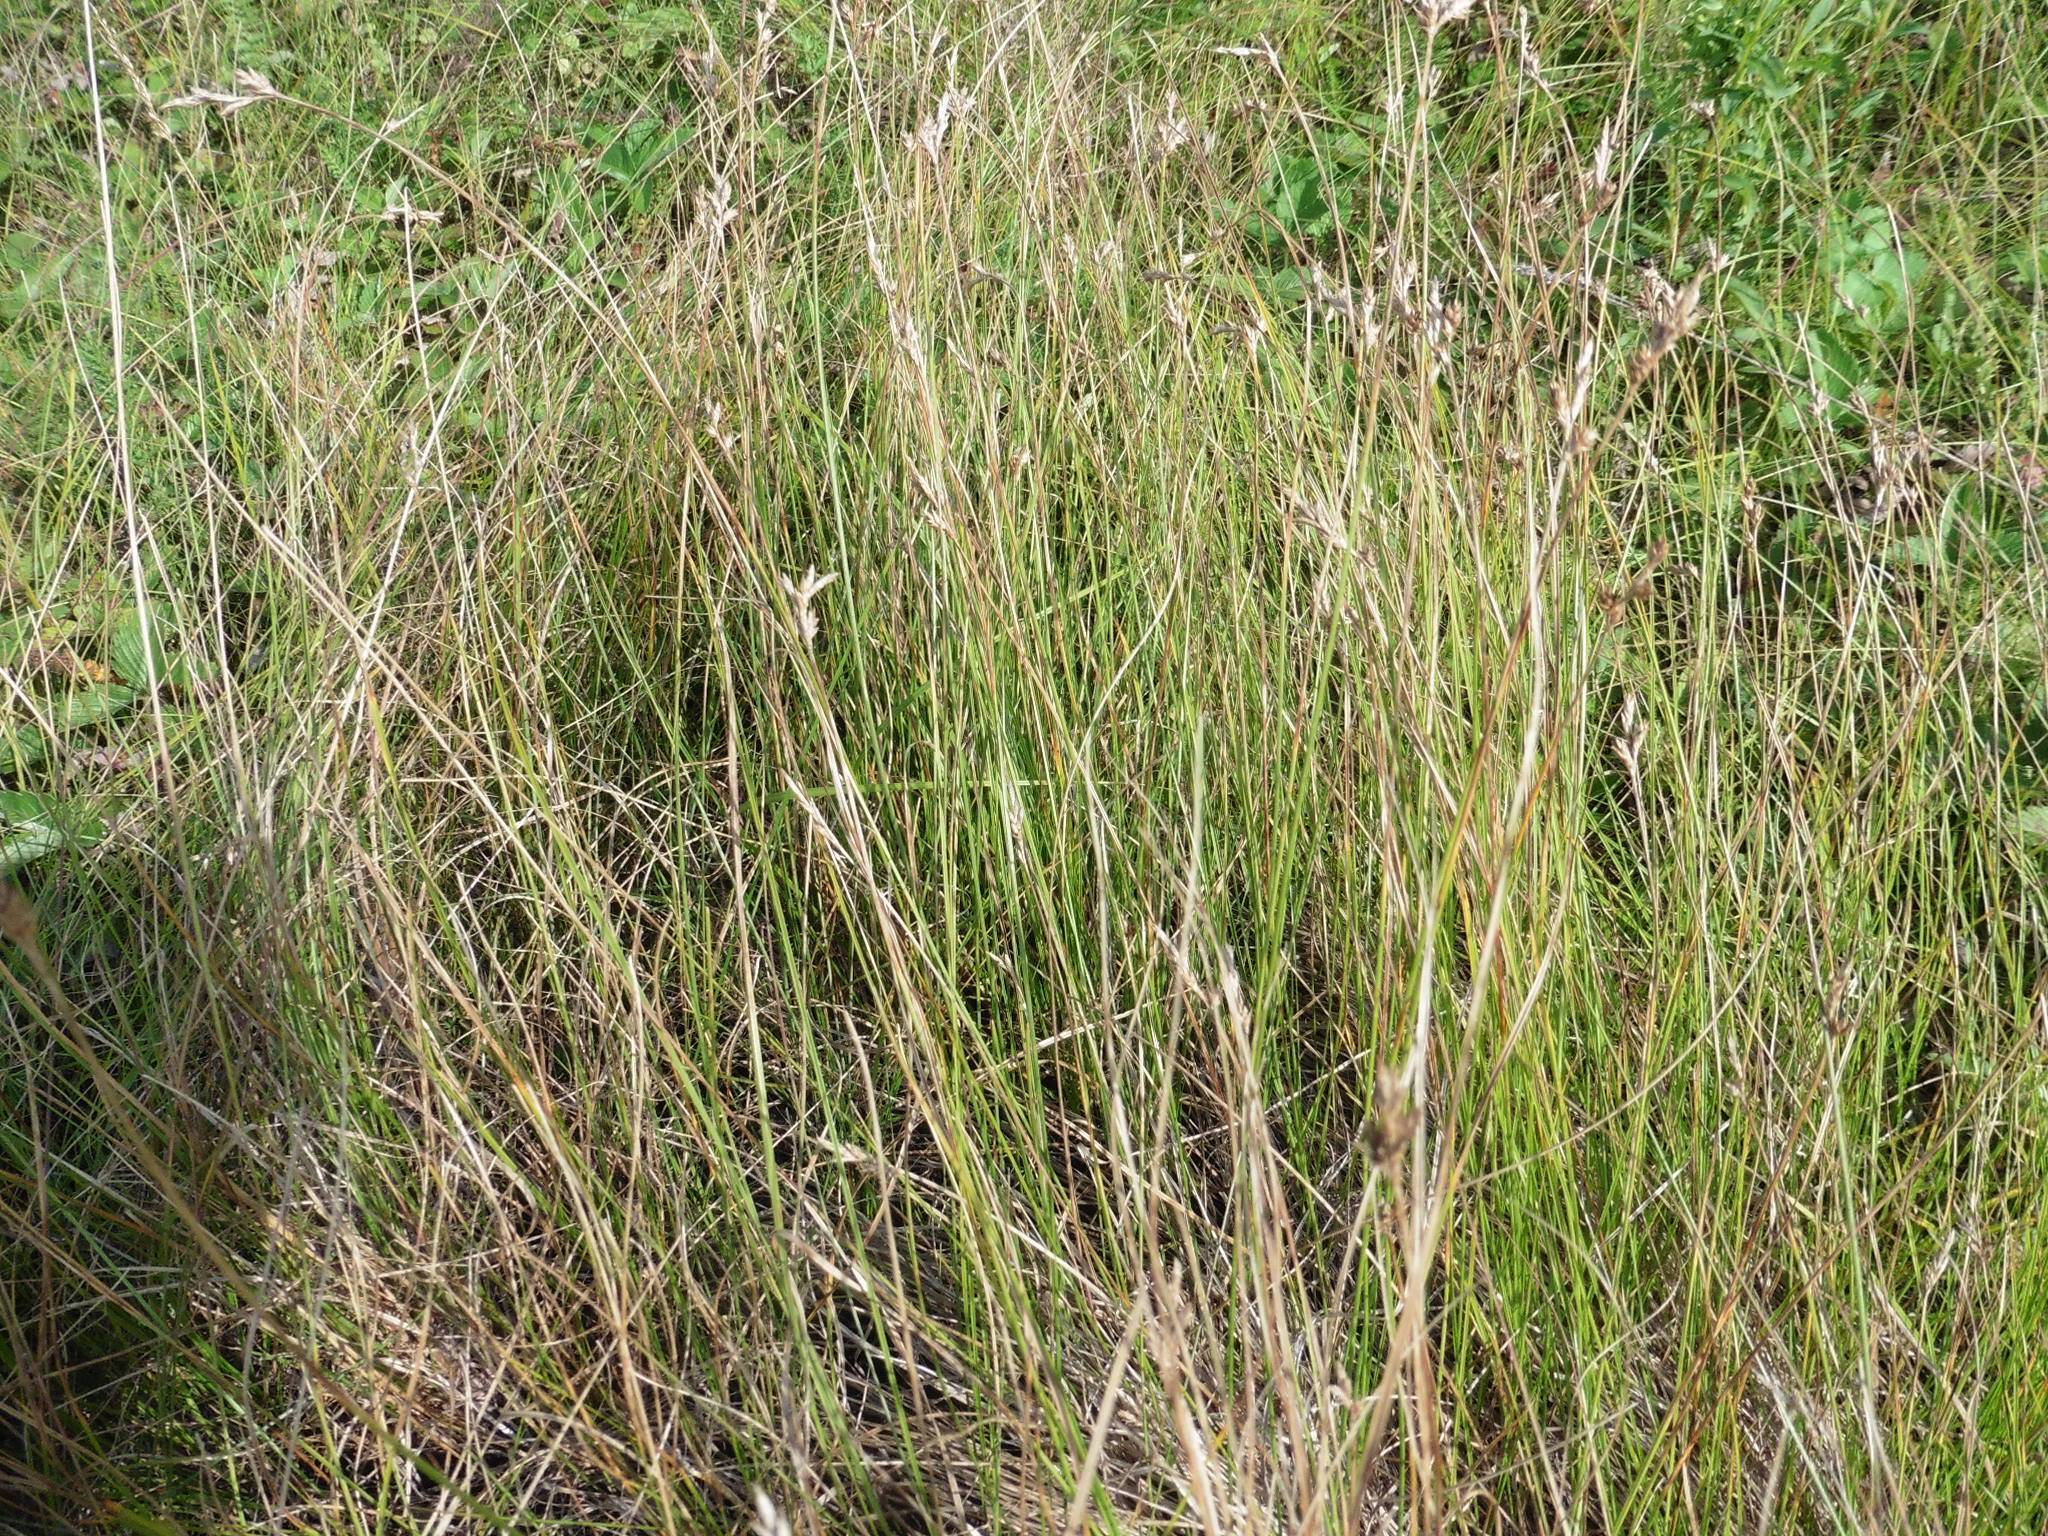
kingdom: Plantae
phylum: Tracheophyta
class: Liliopsida
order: Poales
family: Cyperaceae
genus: Carex
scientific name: Carex praecox
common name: Early sedge
